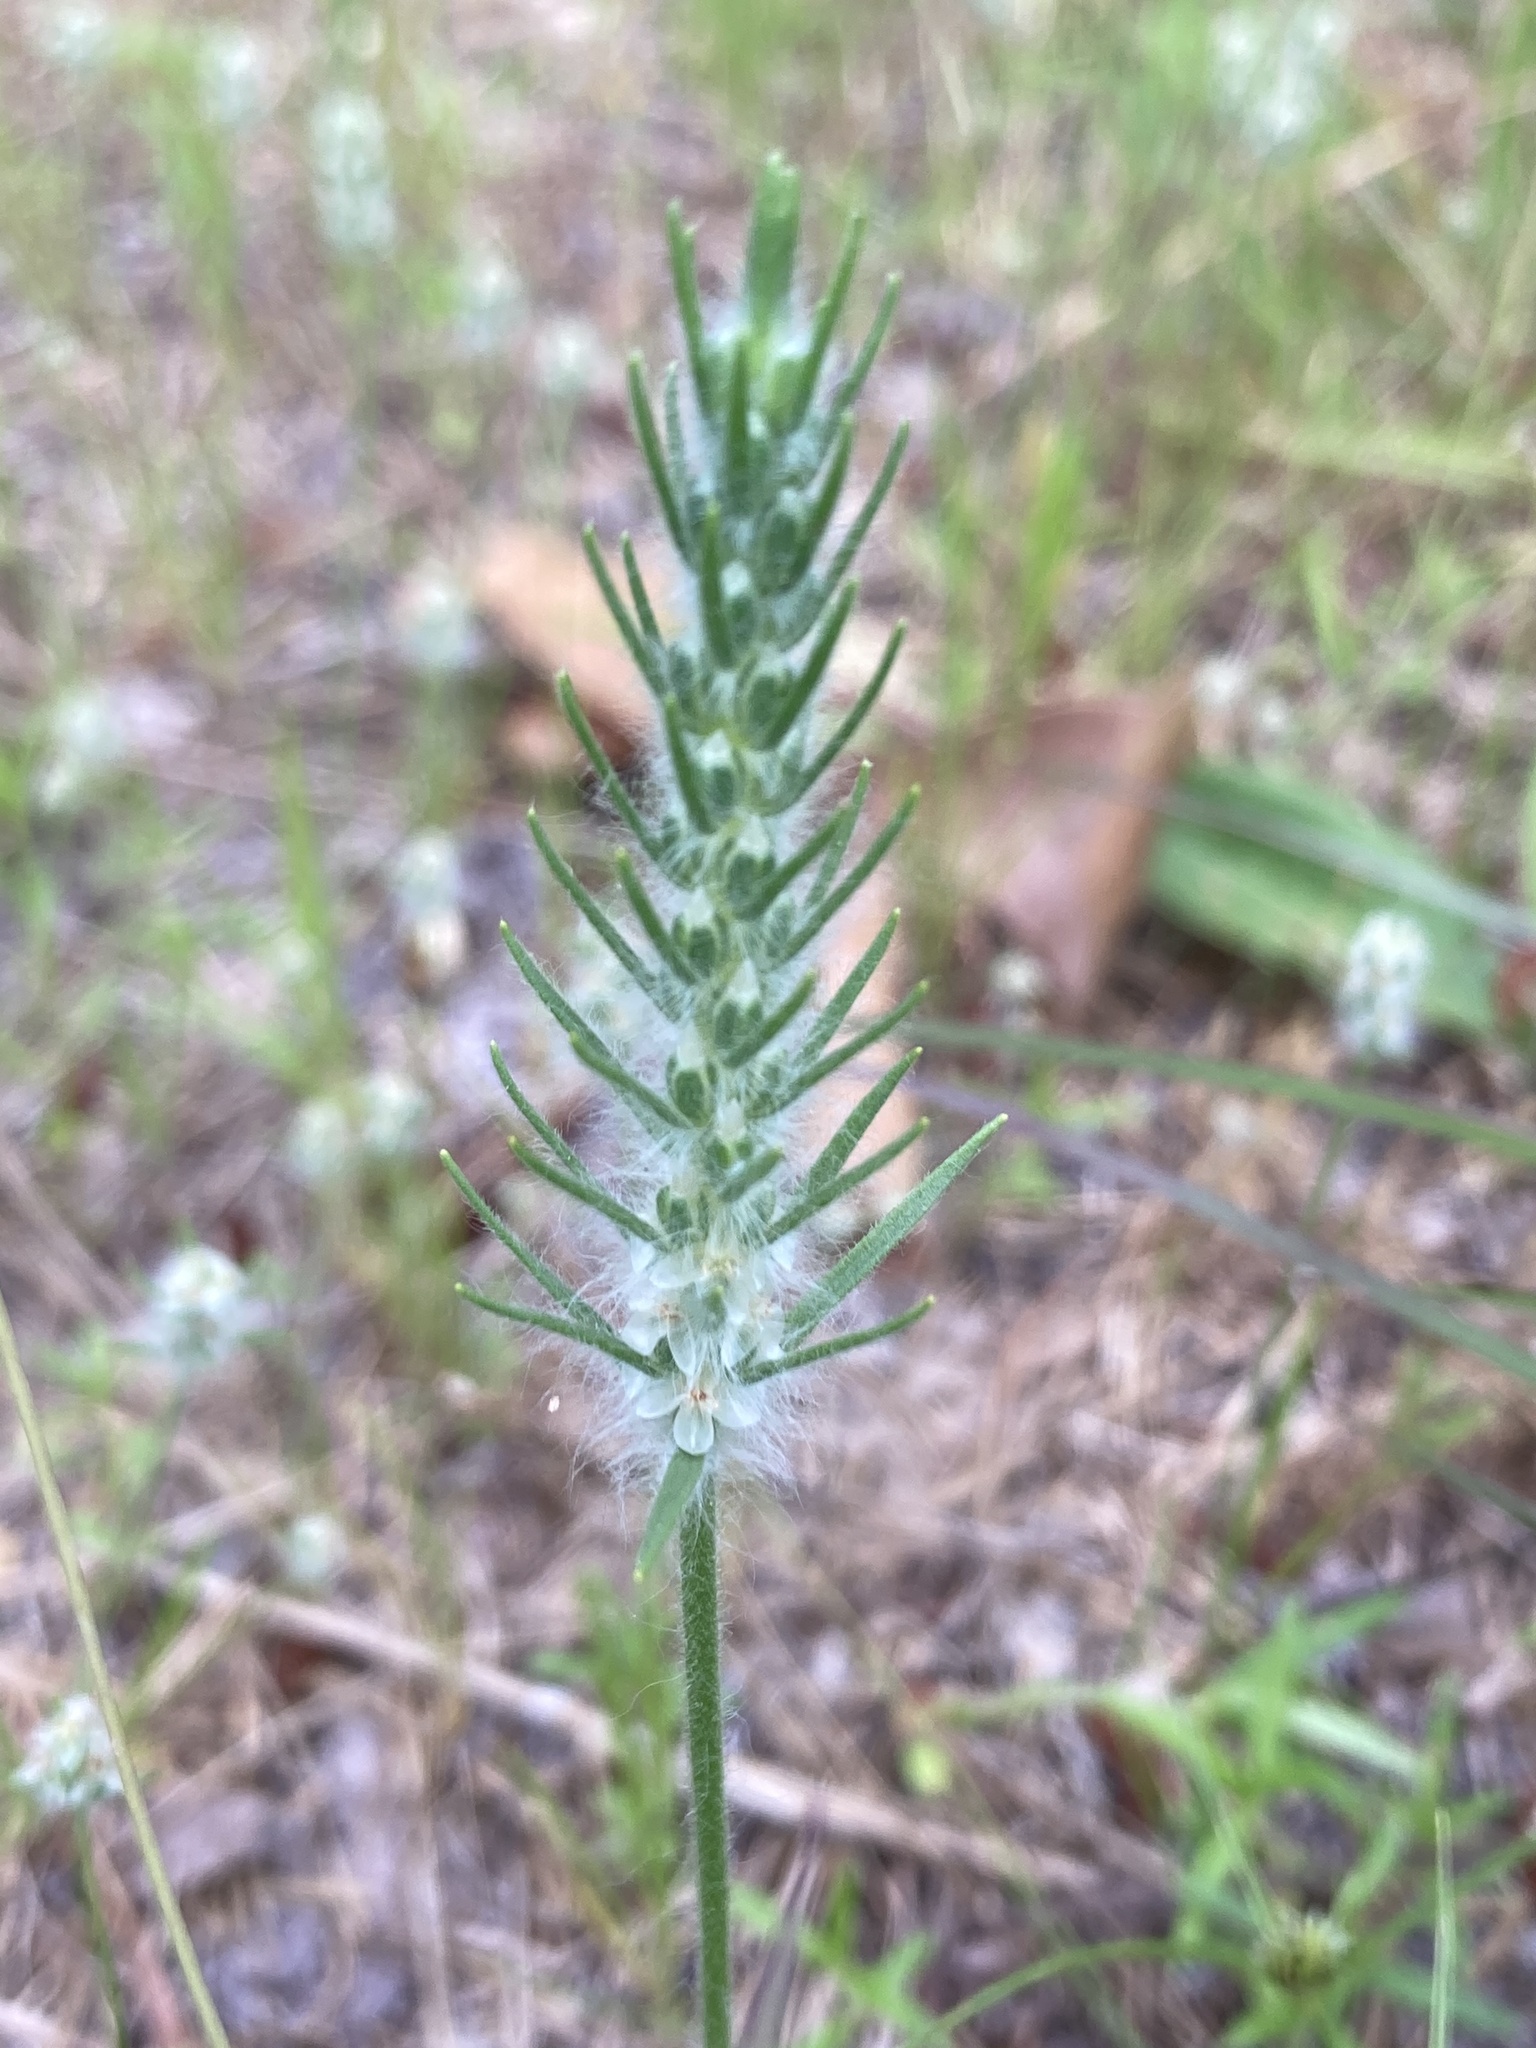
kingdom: Plantae
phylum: Tracheophyta
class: Magnoliopsida
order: Lamiales
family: Plantaginaceae
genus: Plantago
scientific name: Plantago aristata
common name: Bracted plantain
